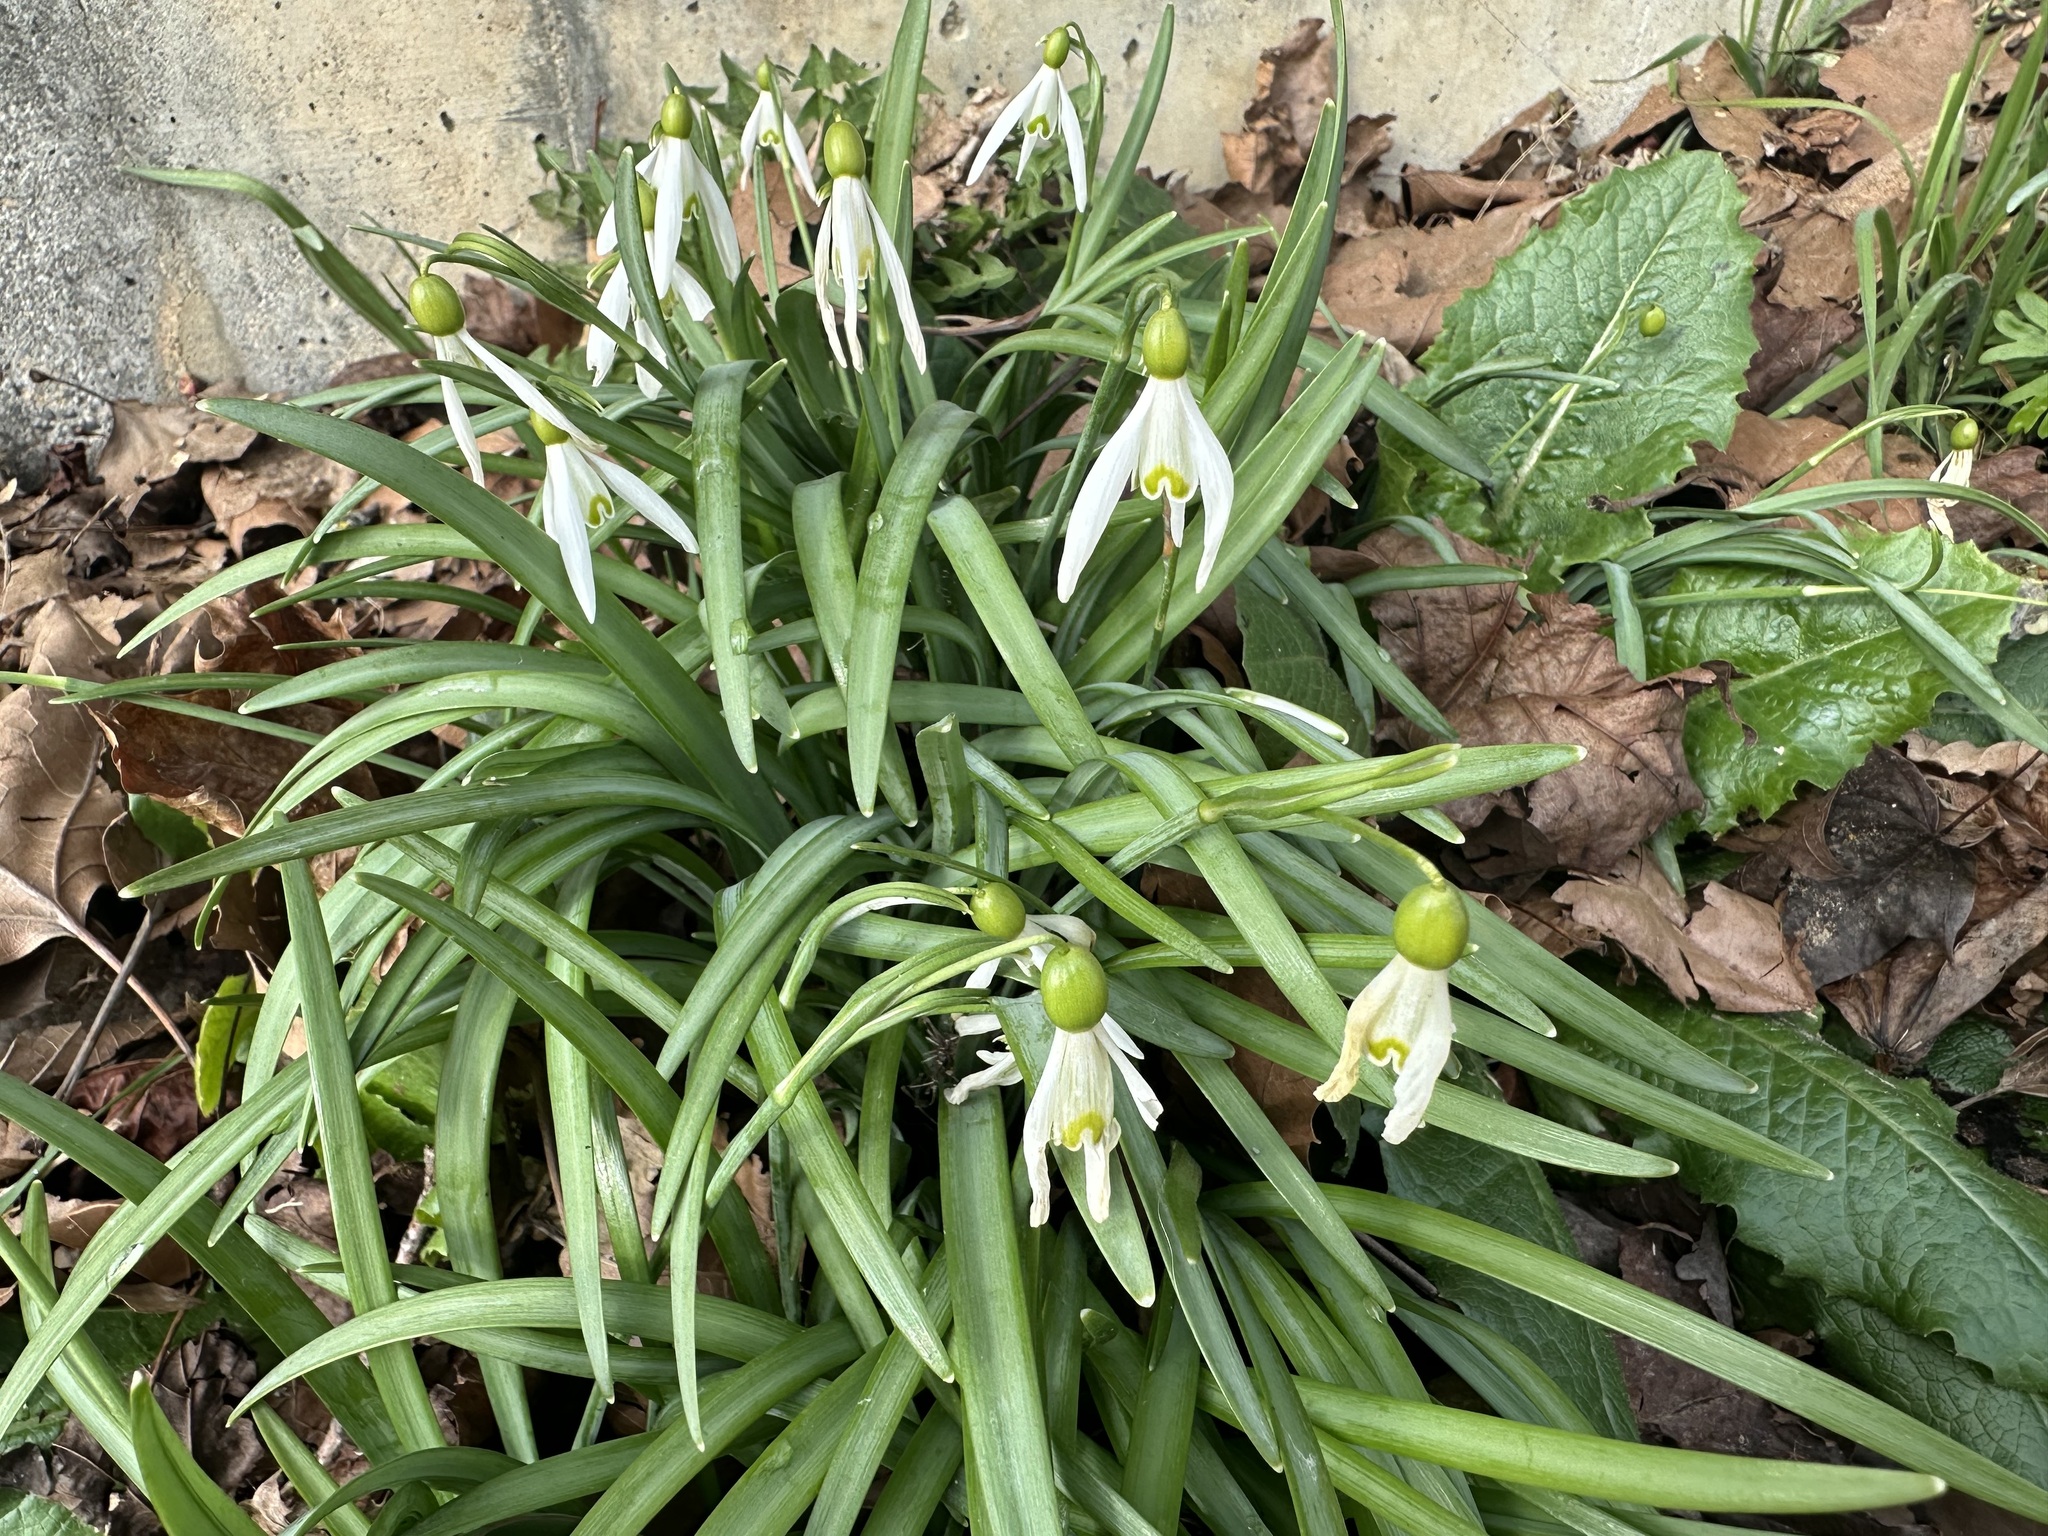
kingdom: Plantae
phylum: Tracheophyta
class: Liliopsida
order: Asparagales
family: Amaryllidaceae
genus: Galanthus
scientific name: Galanthus nivalis
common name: Snowdrop
